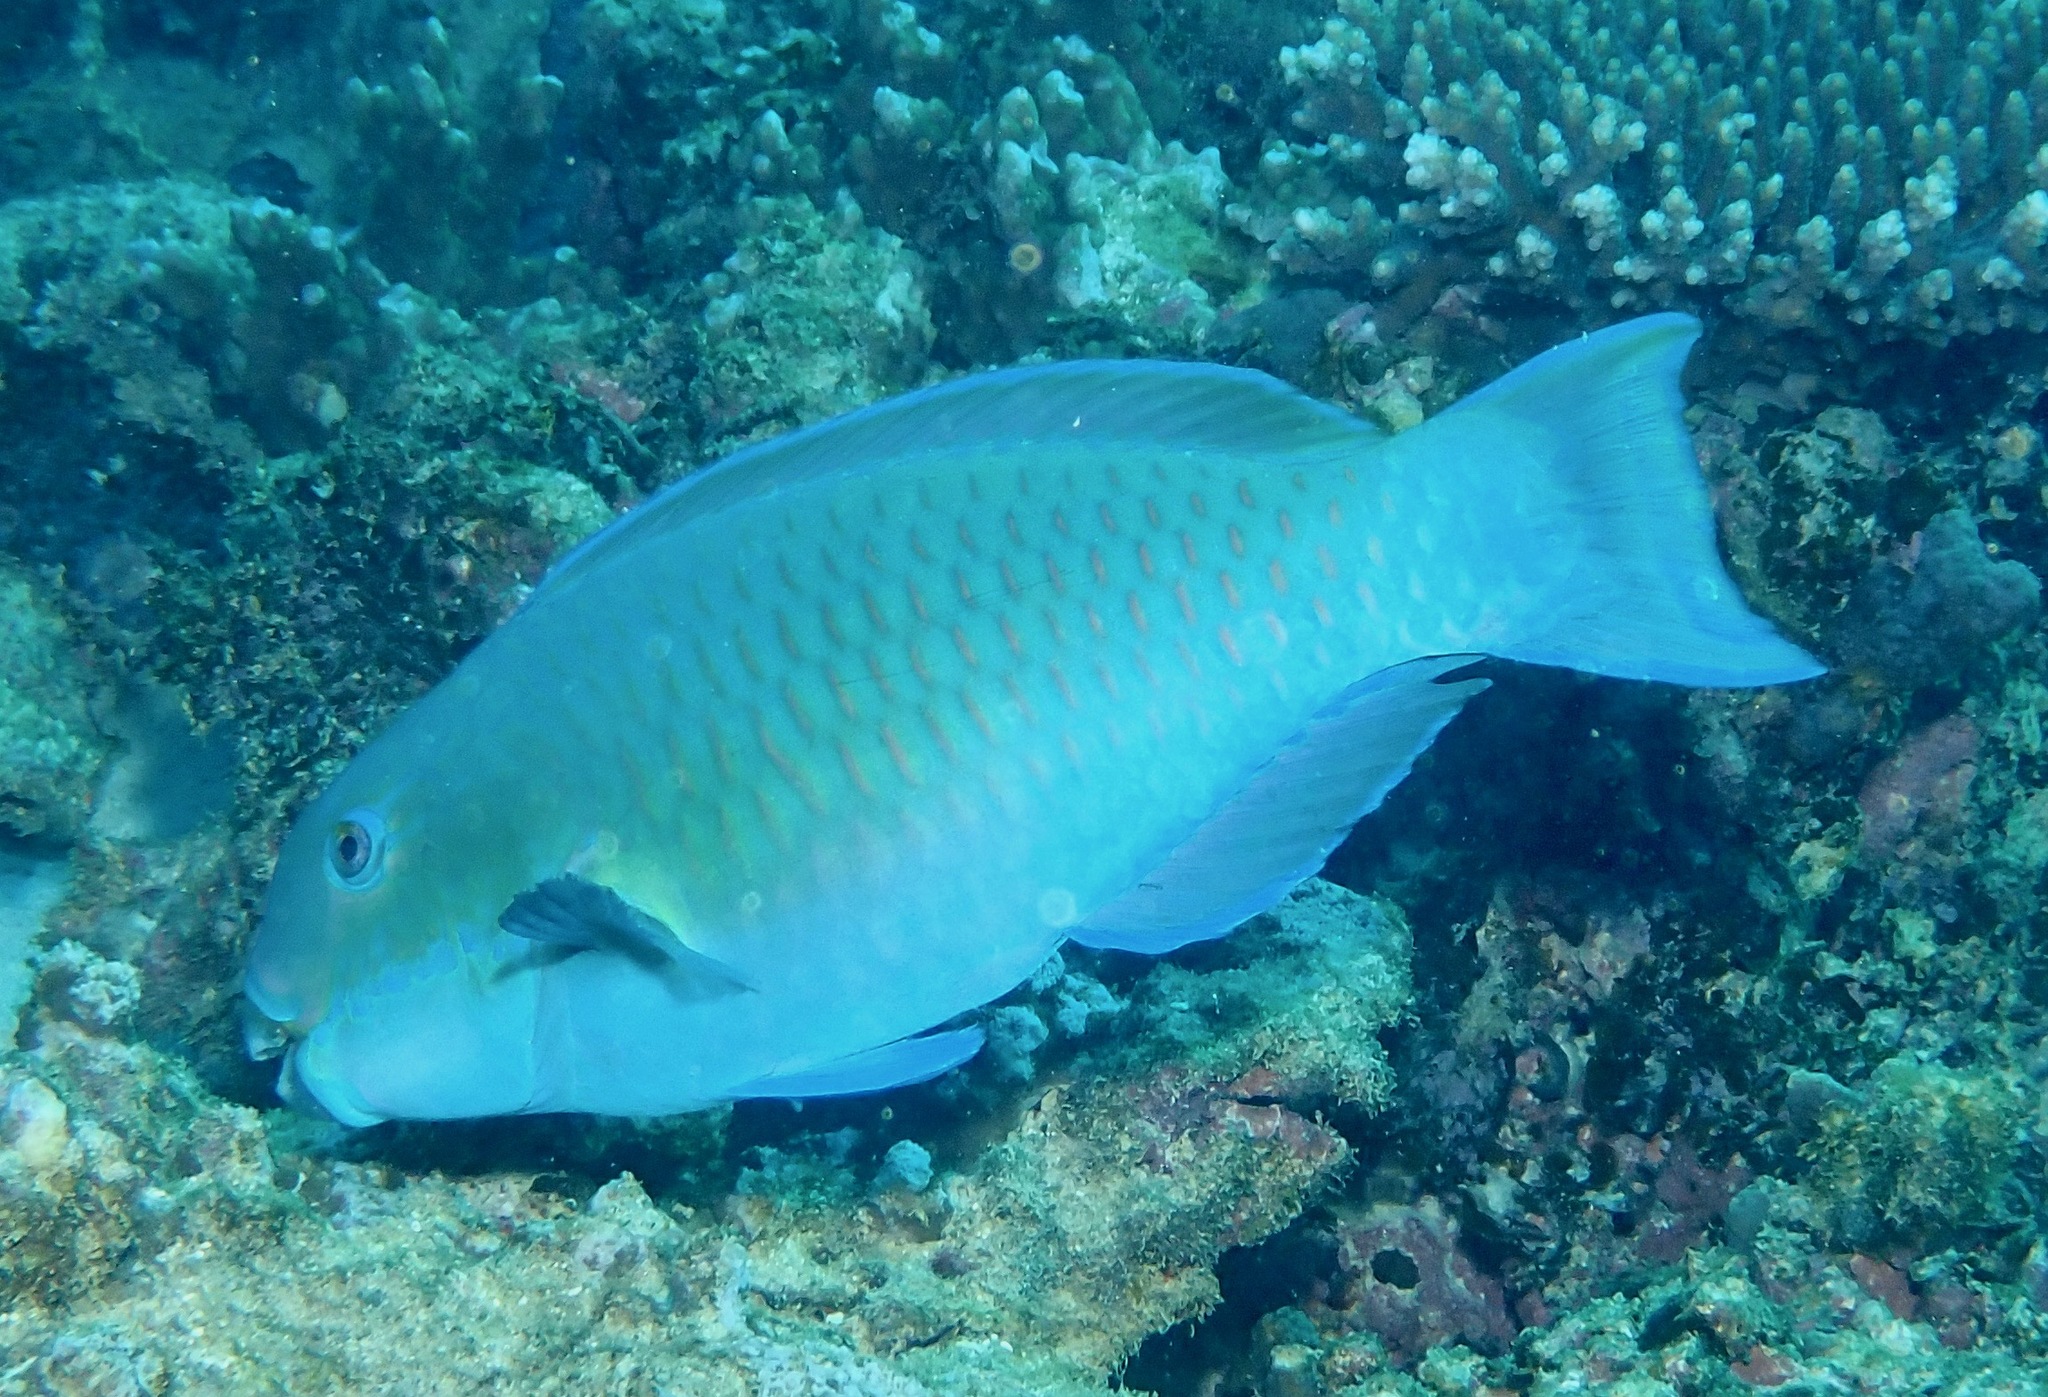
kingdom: Animalia
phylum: Chordata
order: Perciformes
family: Scaridae
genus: Chlorurus
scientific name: Chlorurus microrhinos
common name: Steephead parrotfish
